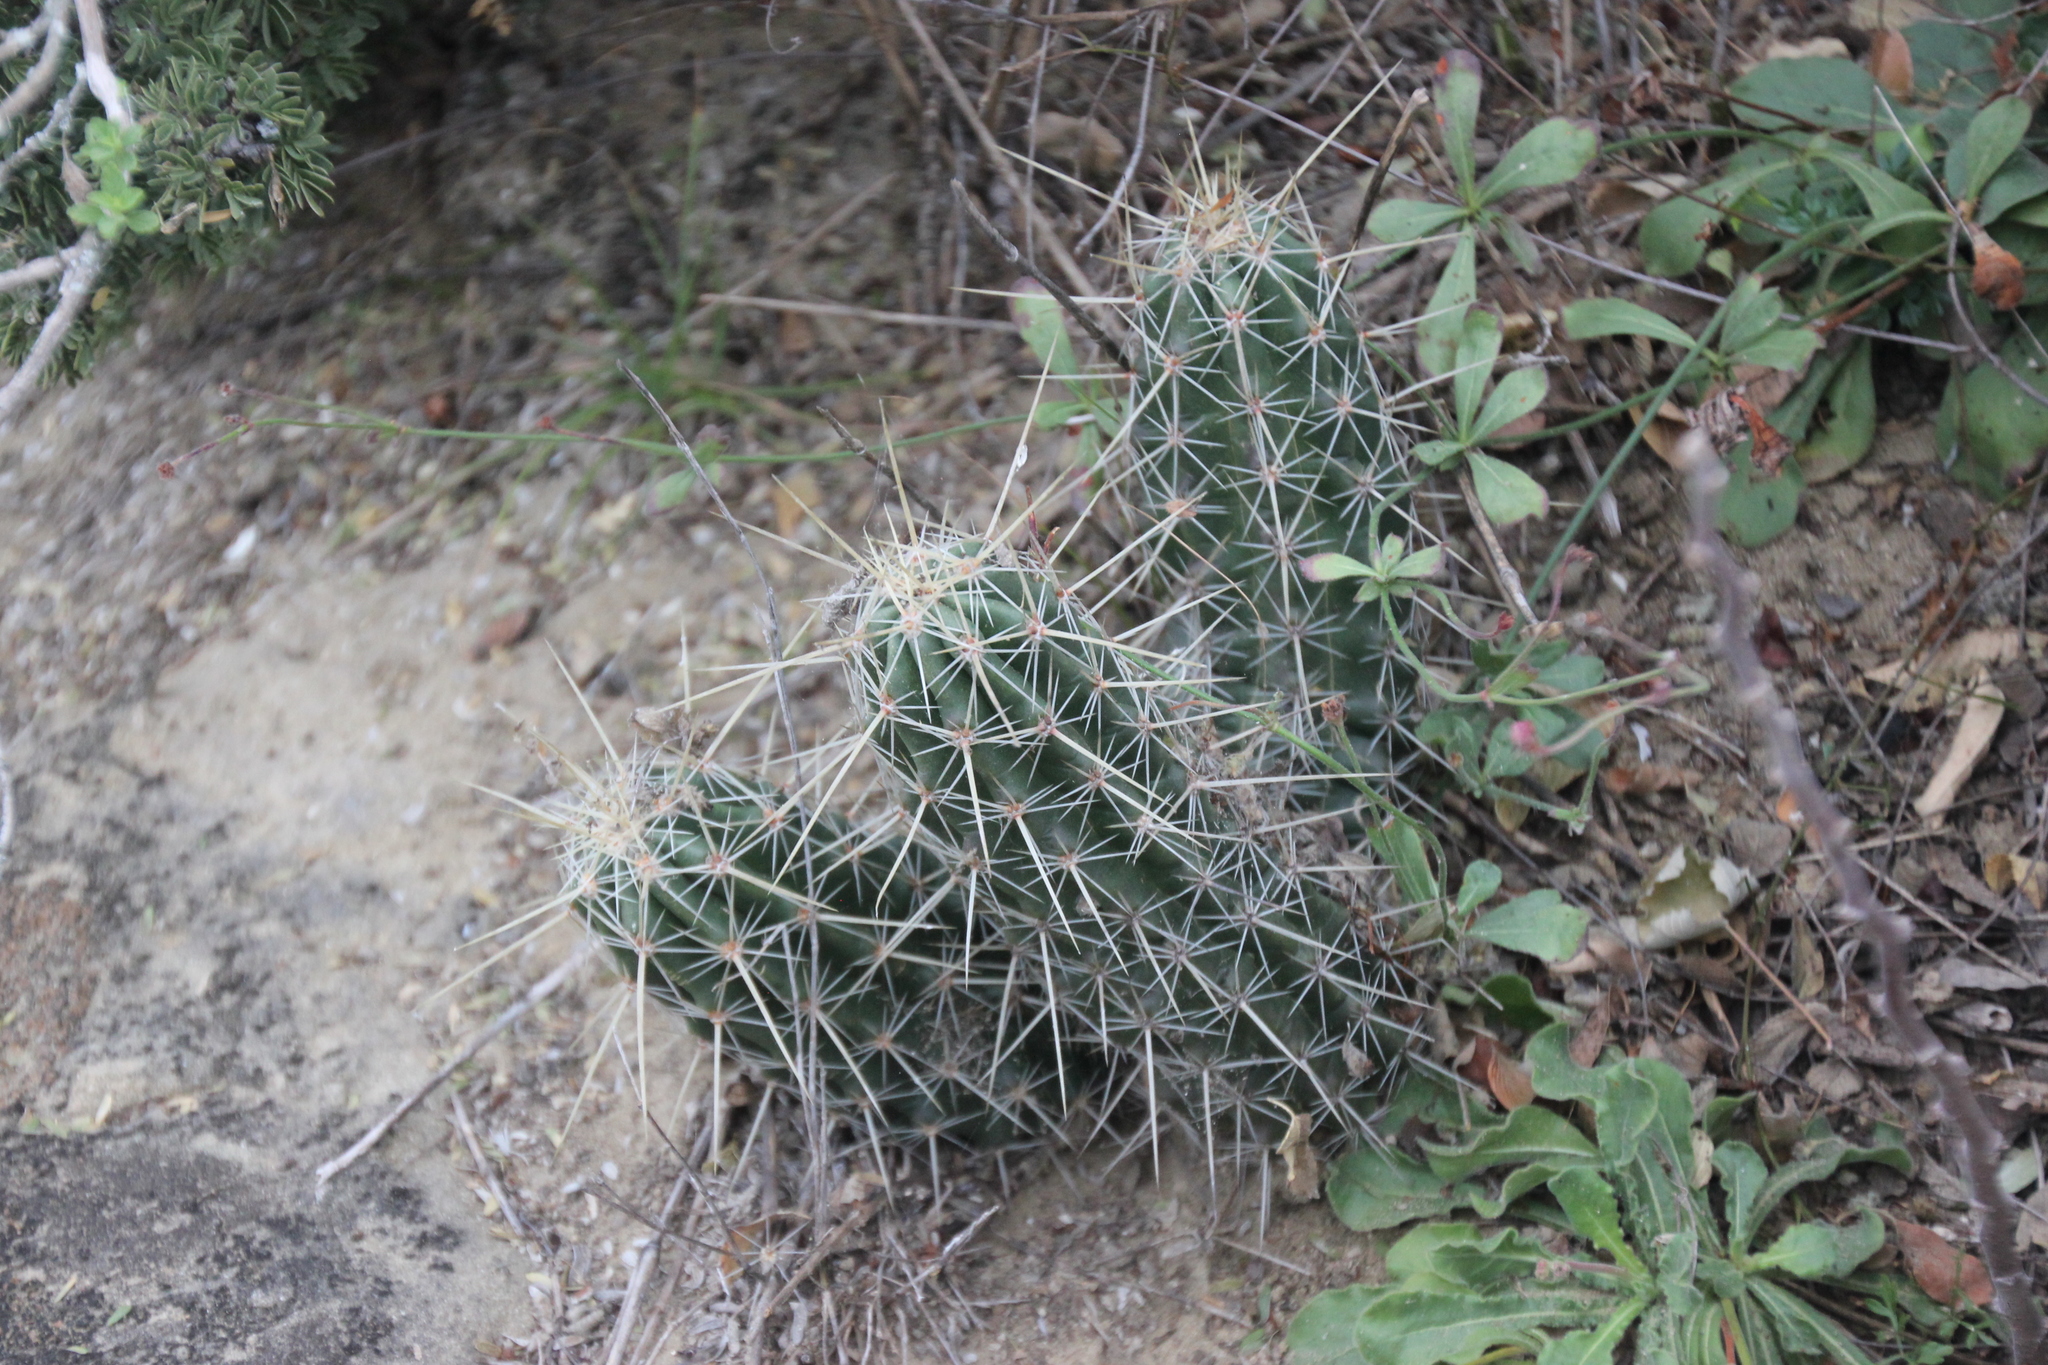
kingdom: Plantae
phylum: Tracheophyta
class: Magnoliopsida
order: Caryophyllales
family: Cactaceae
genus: Echinocereus
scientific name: Echinocereus enneacanthus
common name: Pitaya
